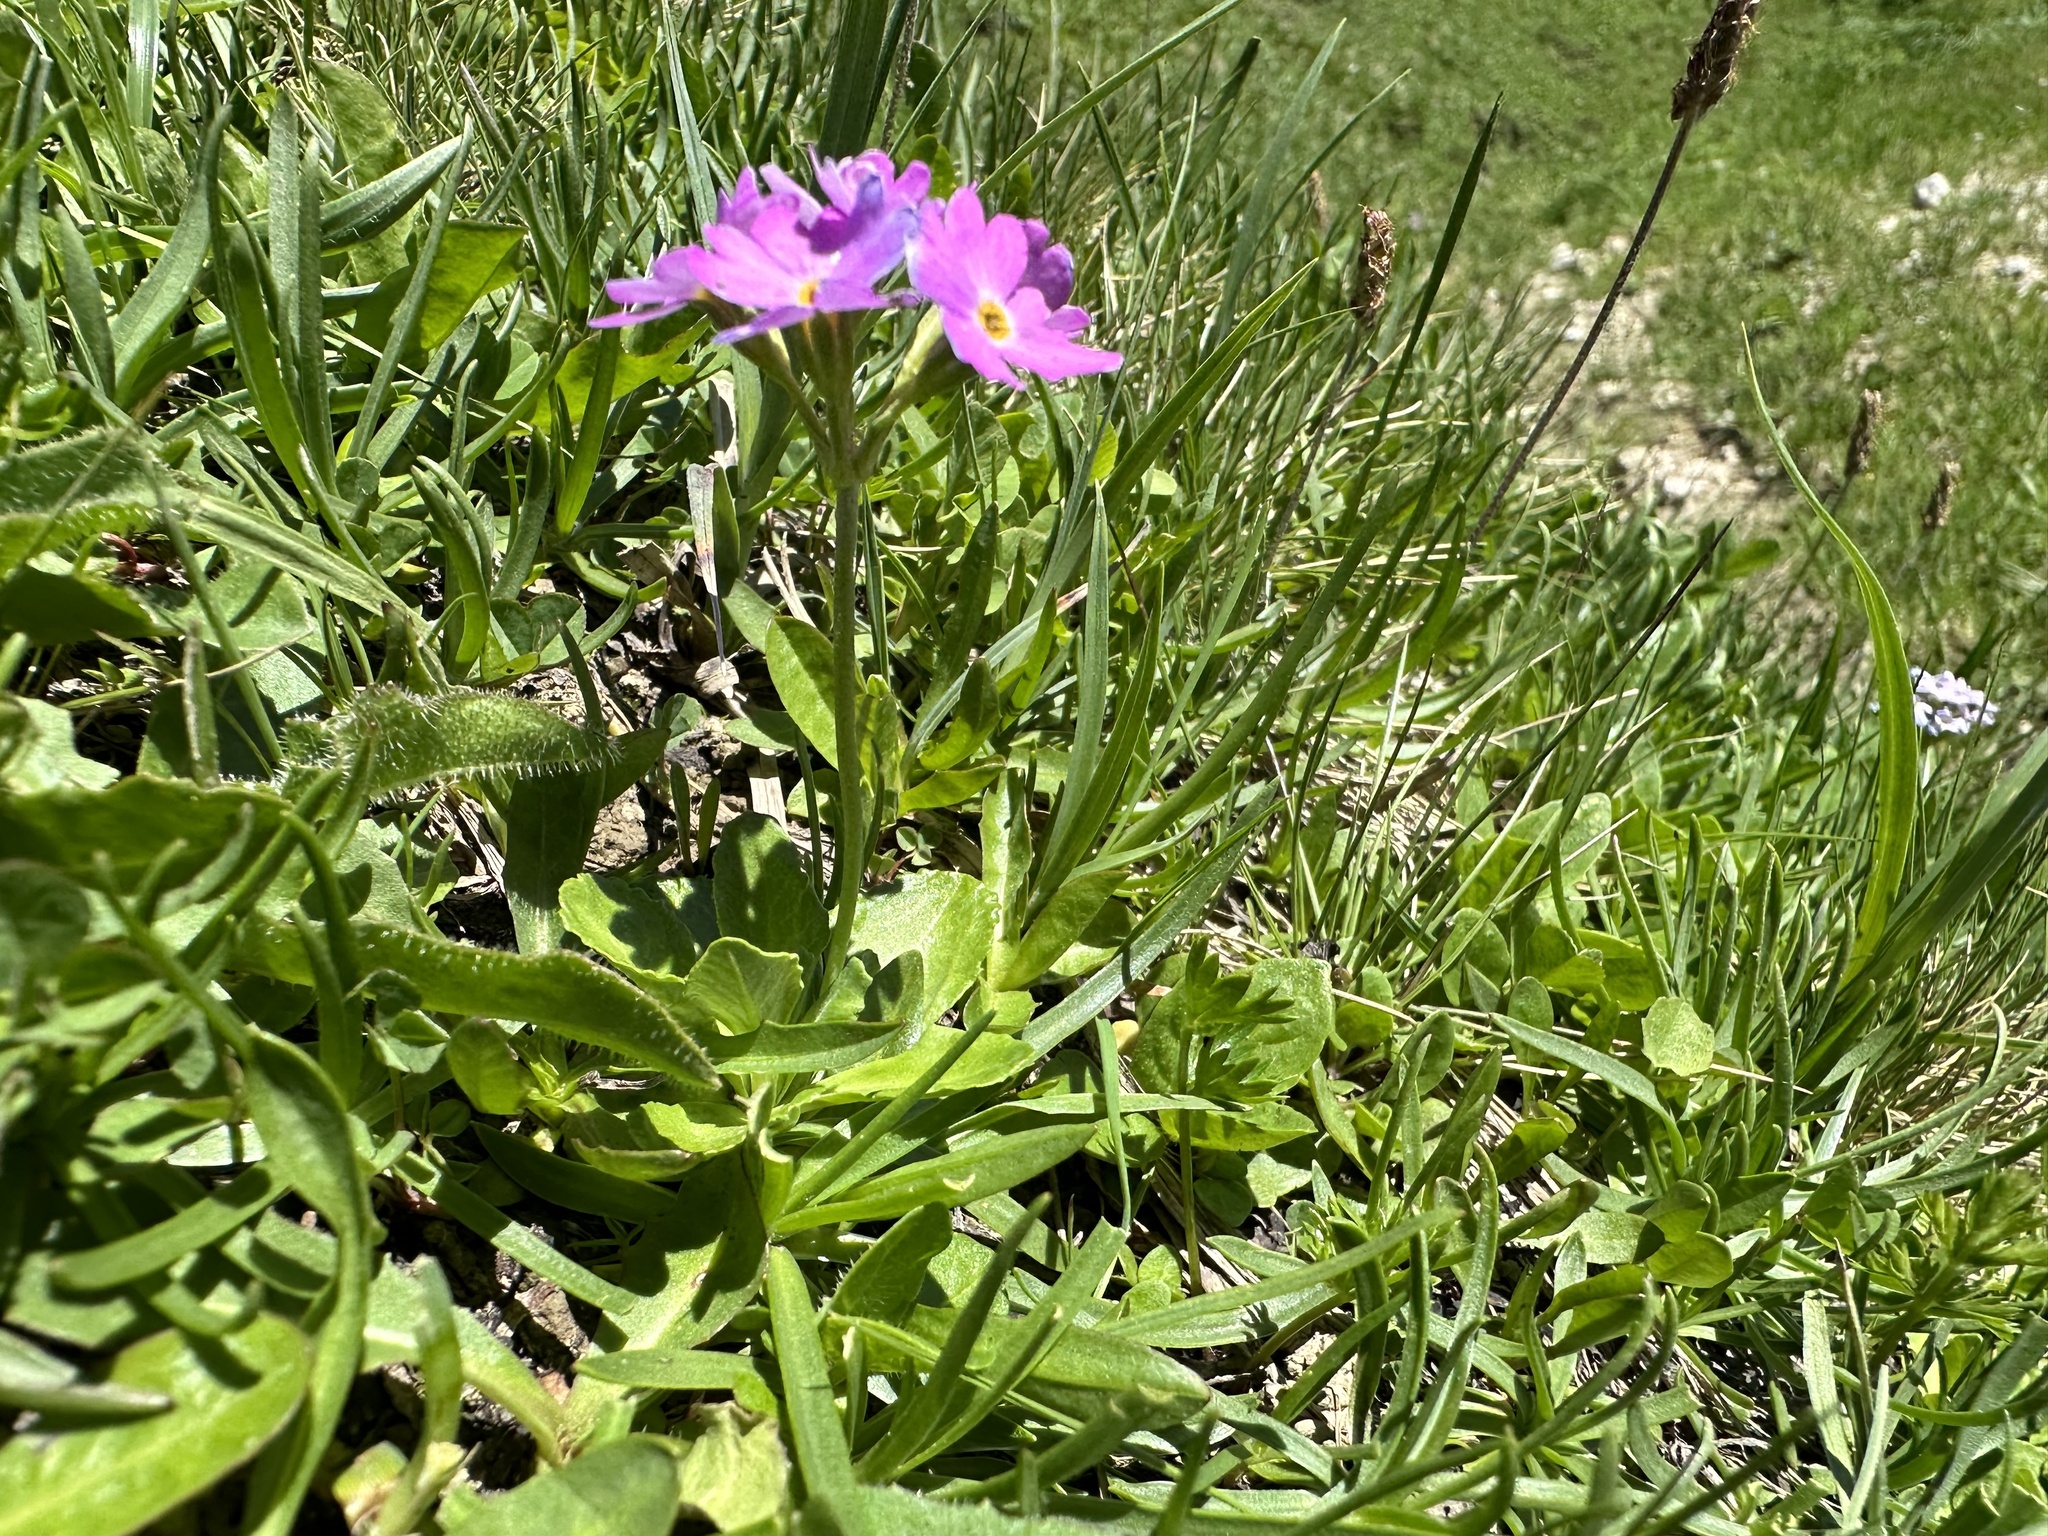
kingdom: Plantae
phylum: Tracheophyta
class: Magnoliopsida
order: Ericales
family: Primulaceae
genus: Primula
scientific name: Primula farinosa
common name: Bird's-eye primrose
